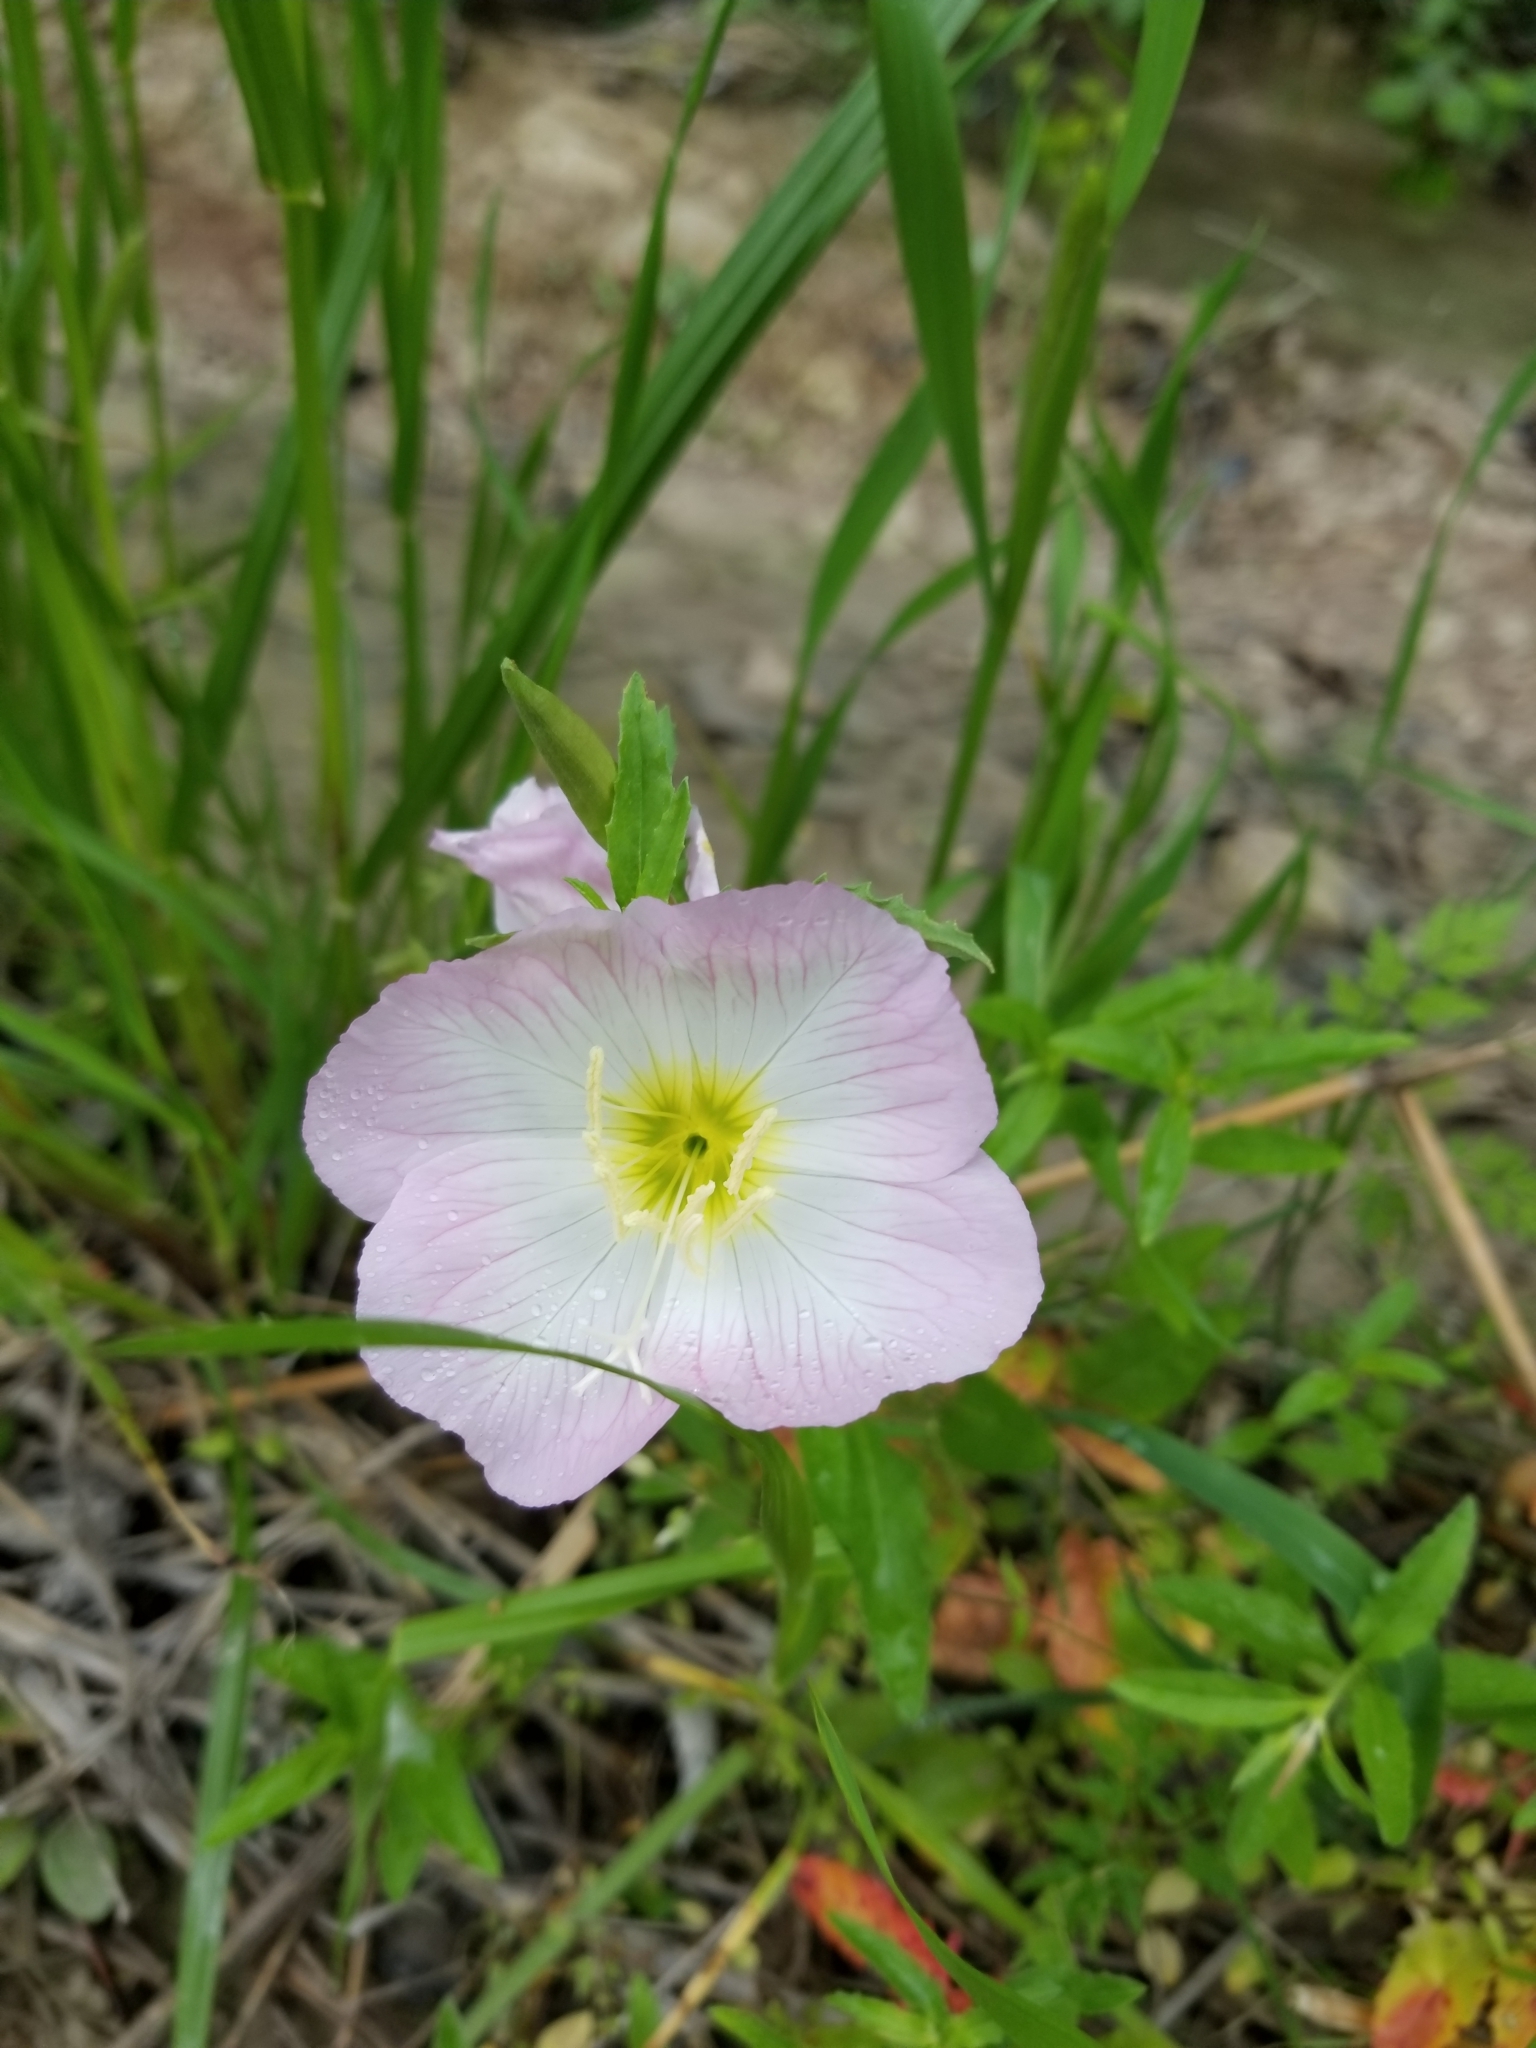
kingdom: Plantae
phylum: Tracheophyta
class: Magnoliopsida
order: Myrtales
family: Onagraceae
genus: Oenothera
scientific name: Oenothera speciosa
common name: White evening-primrose
